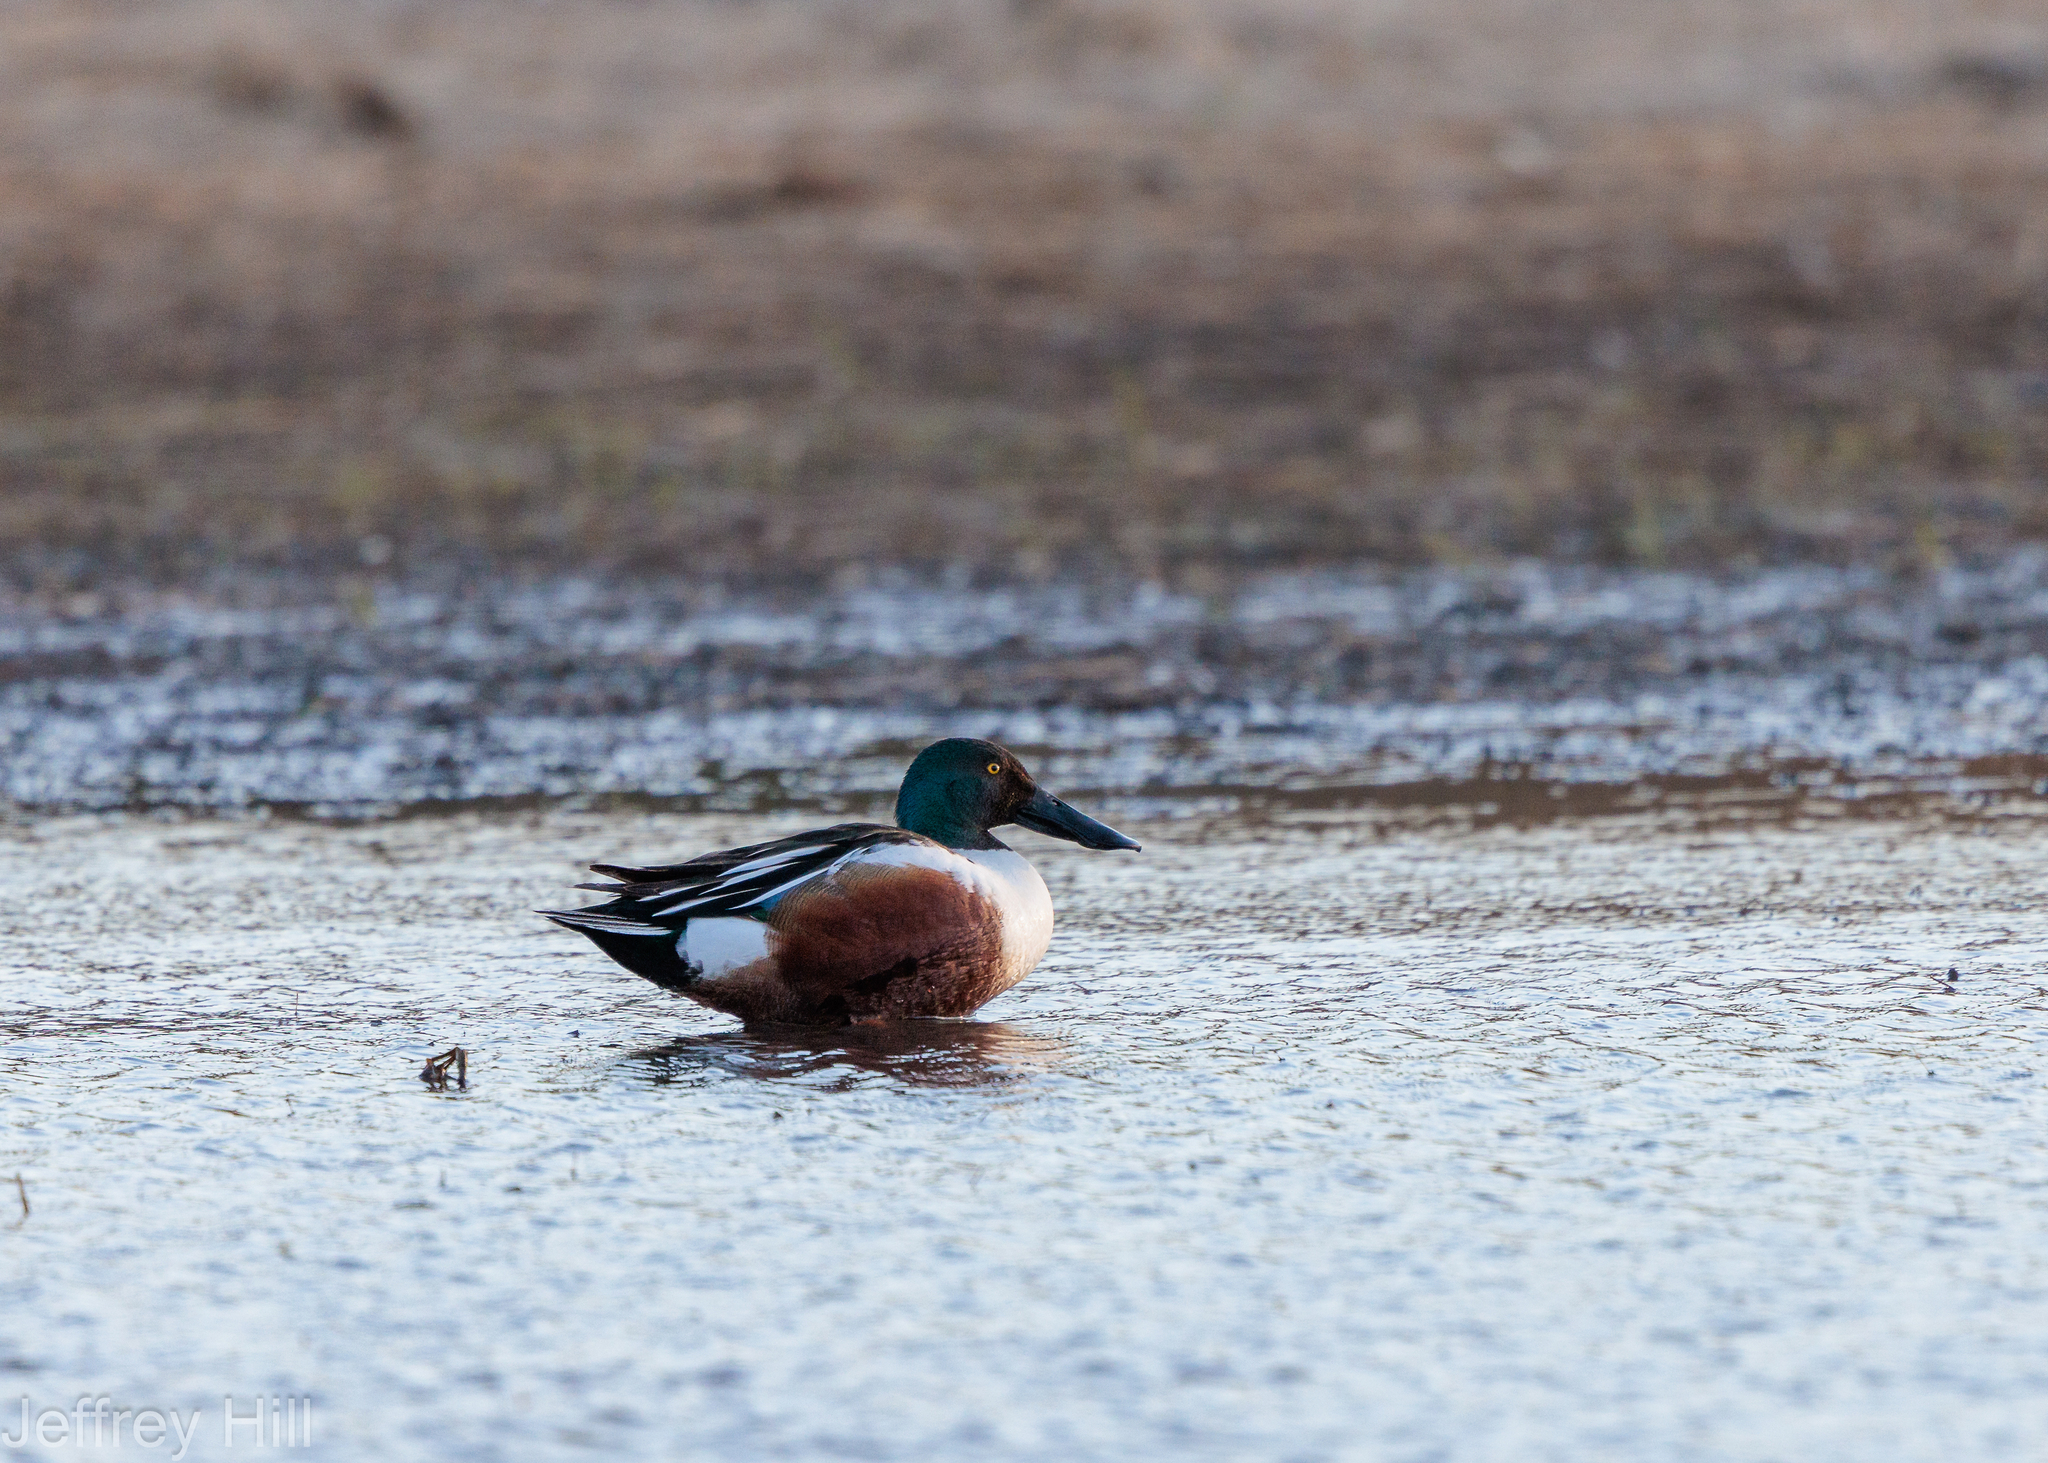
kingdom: Animalia
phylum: Chordata
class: Aves
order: Anseriformes
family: Anatidae
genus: Spatula
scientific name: Spatula clypeata
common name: Northern shoveler
